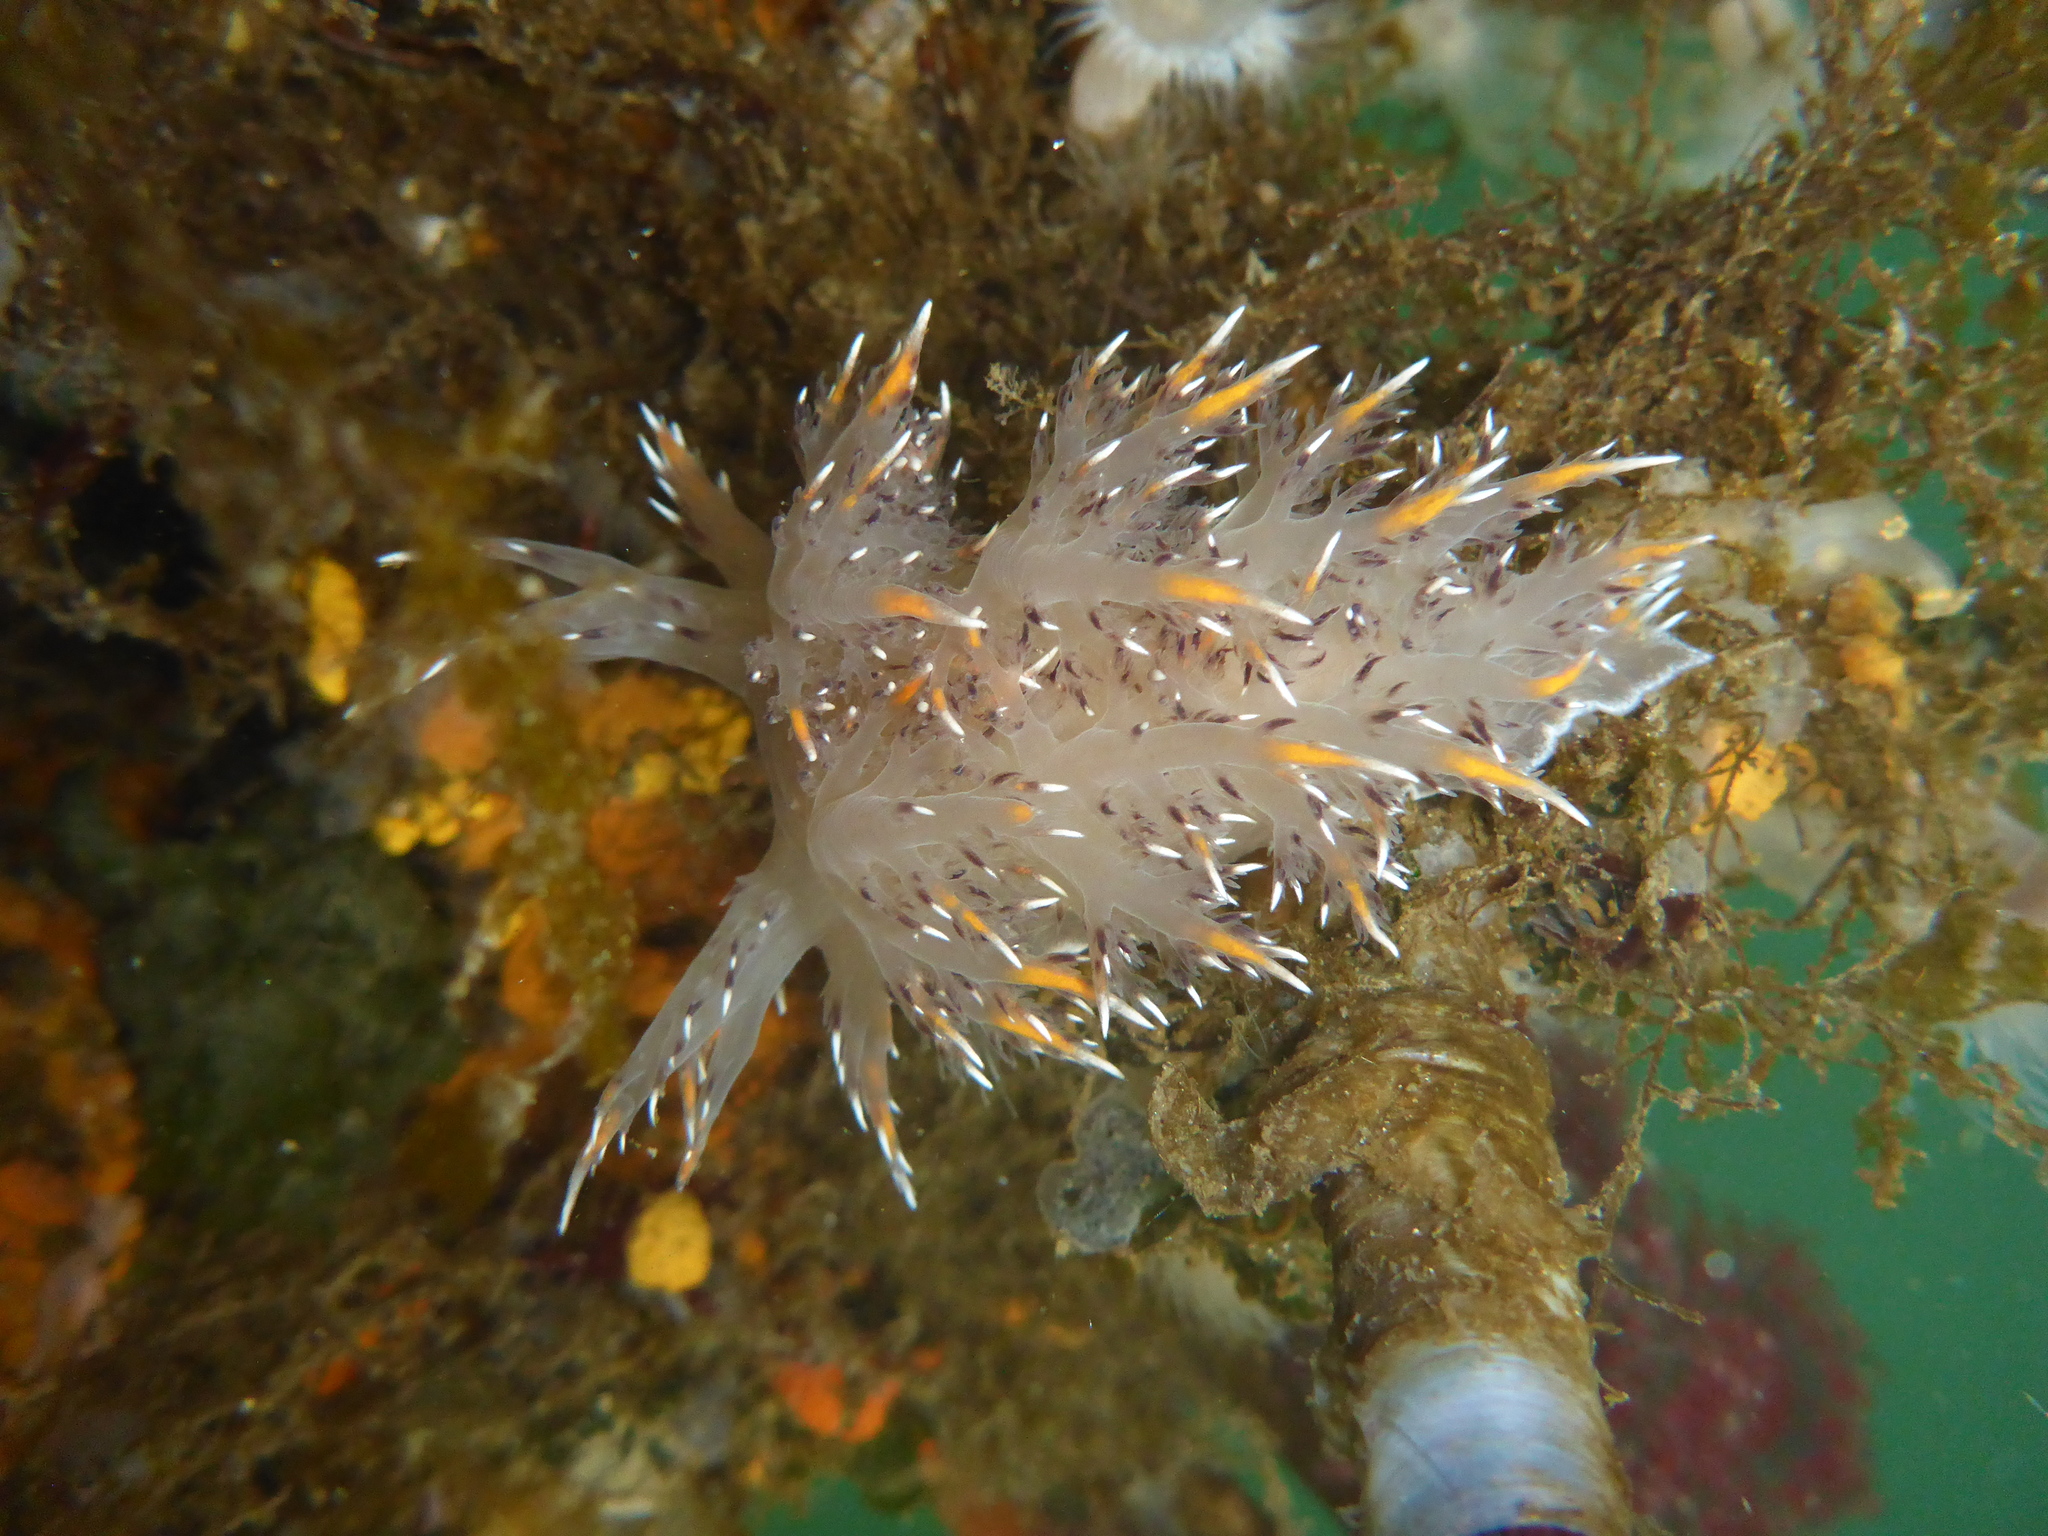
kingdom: Animalia
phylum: Mollusca
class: Gastropoda
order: Nudibranchia
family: Dendronotidae
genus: Dendronotus
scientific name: Dendronotus iris
